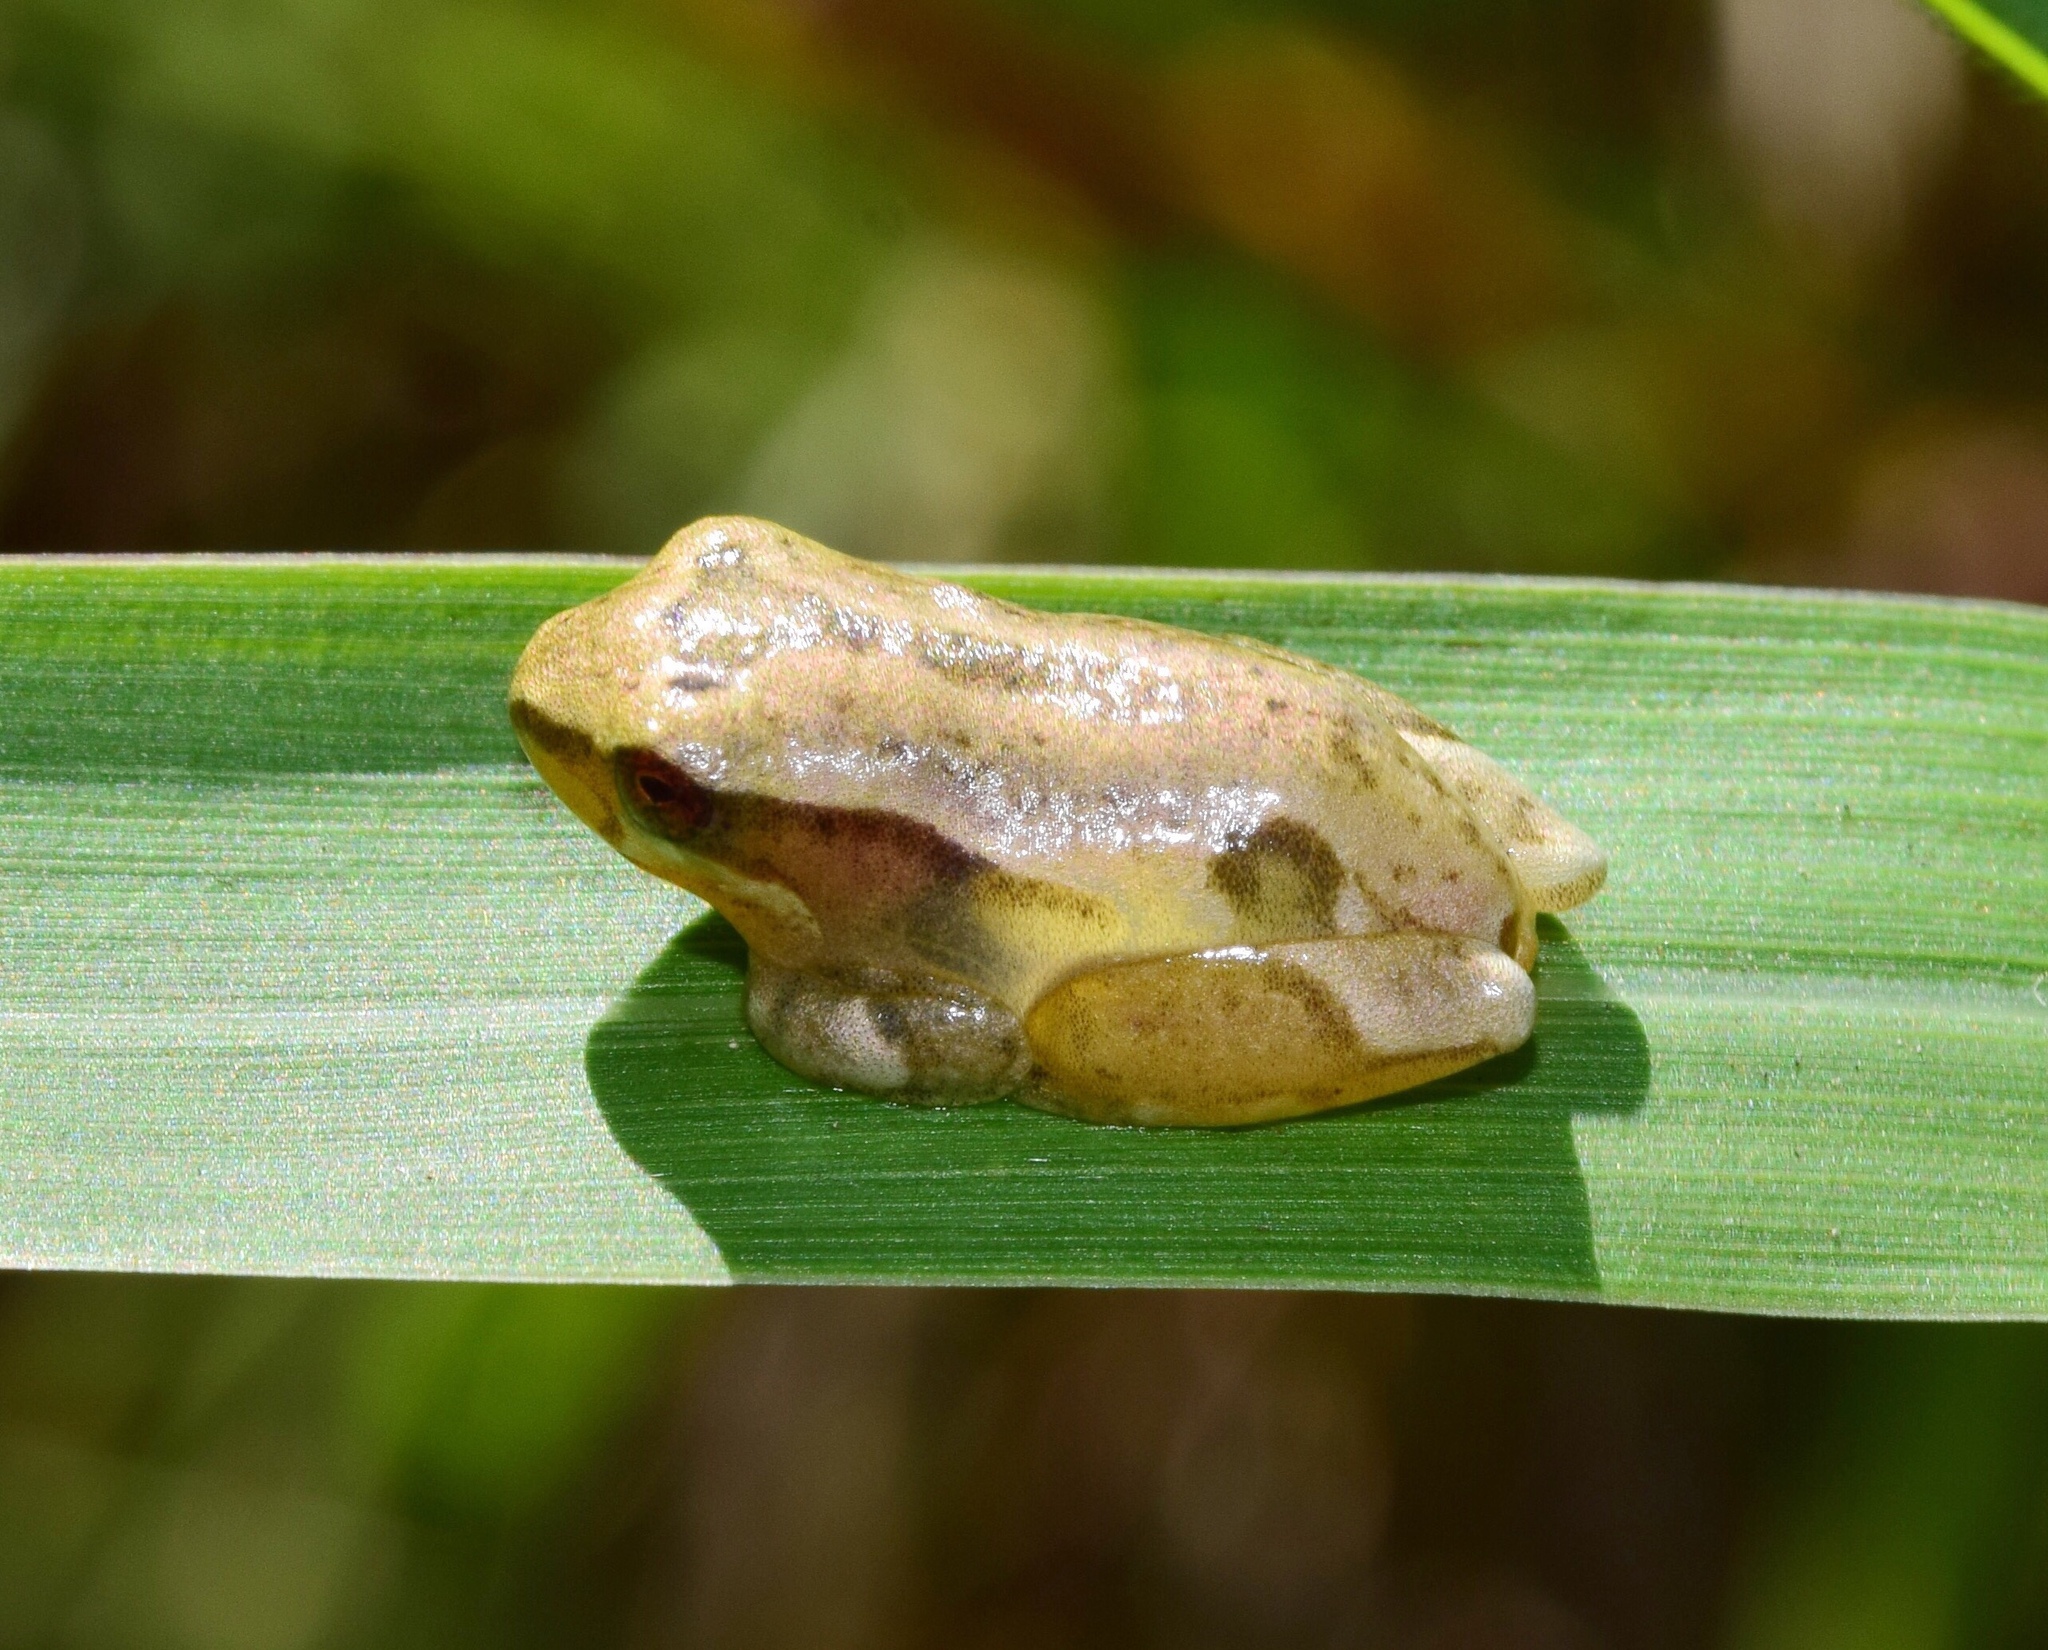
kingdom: Animalia
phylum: Chordata
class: Amphibia
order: Anura
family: Hyperoliidae
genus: Hyperolius
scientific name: Hyperolius marmoratus
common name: Painted reed frog
